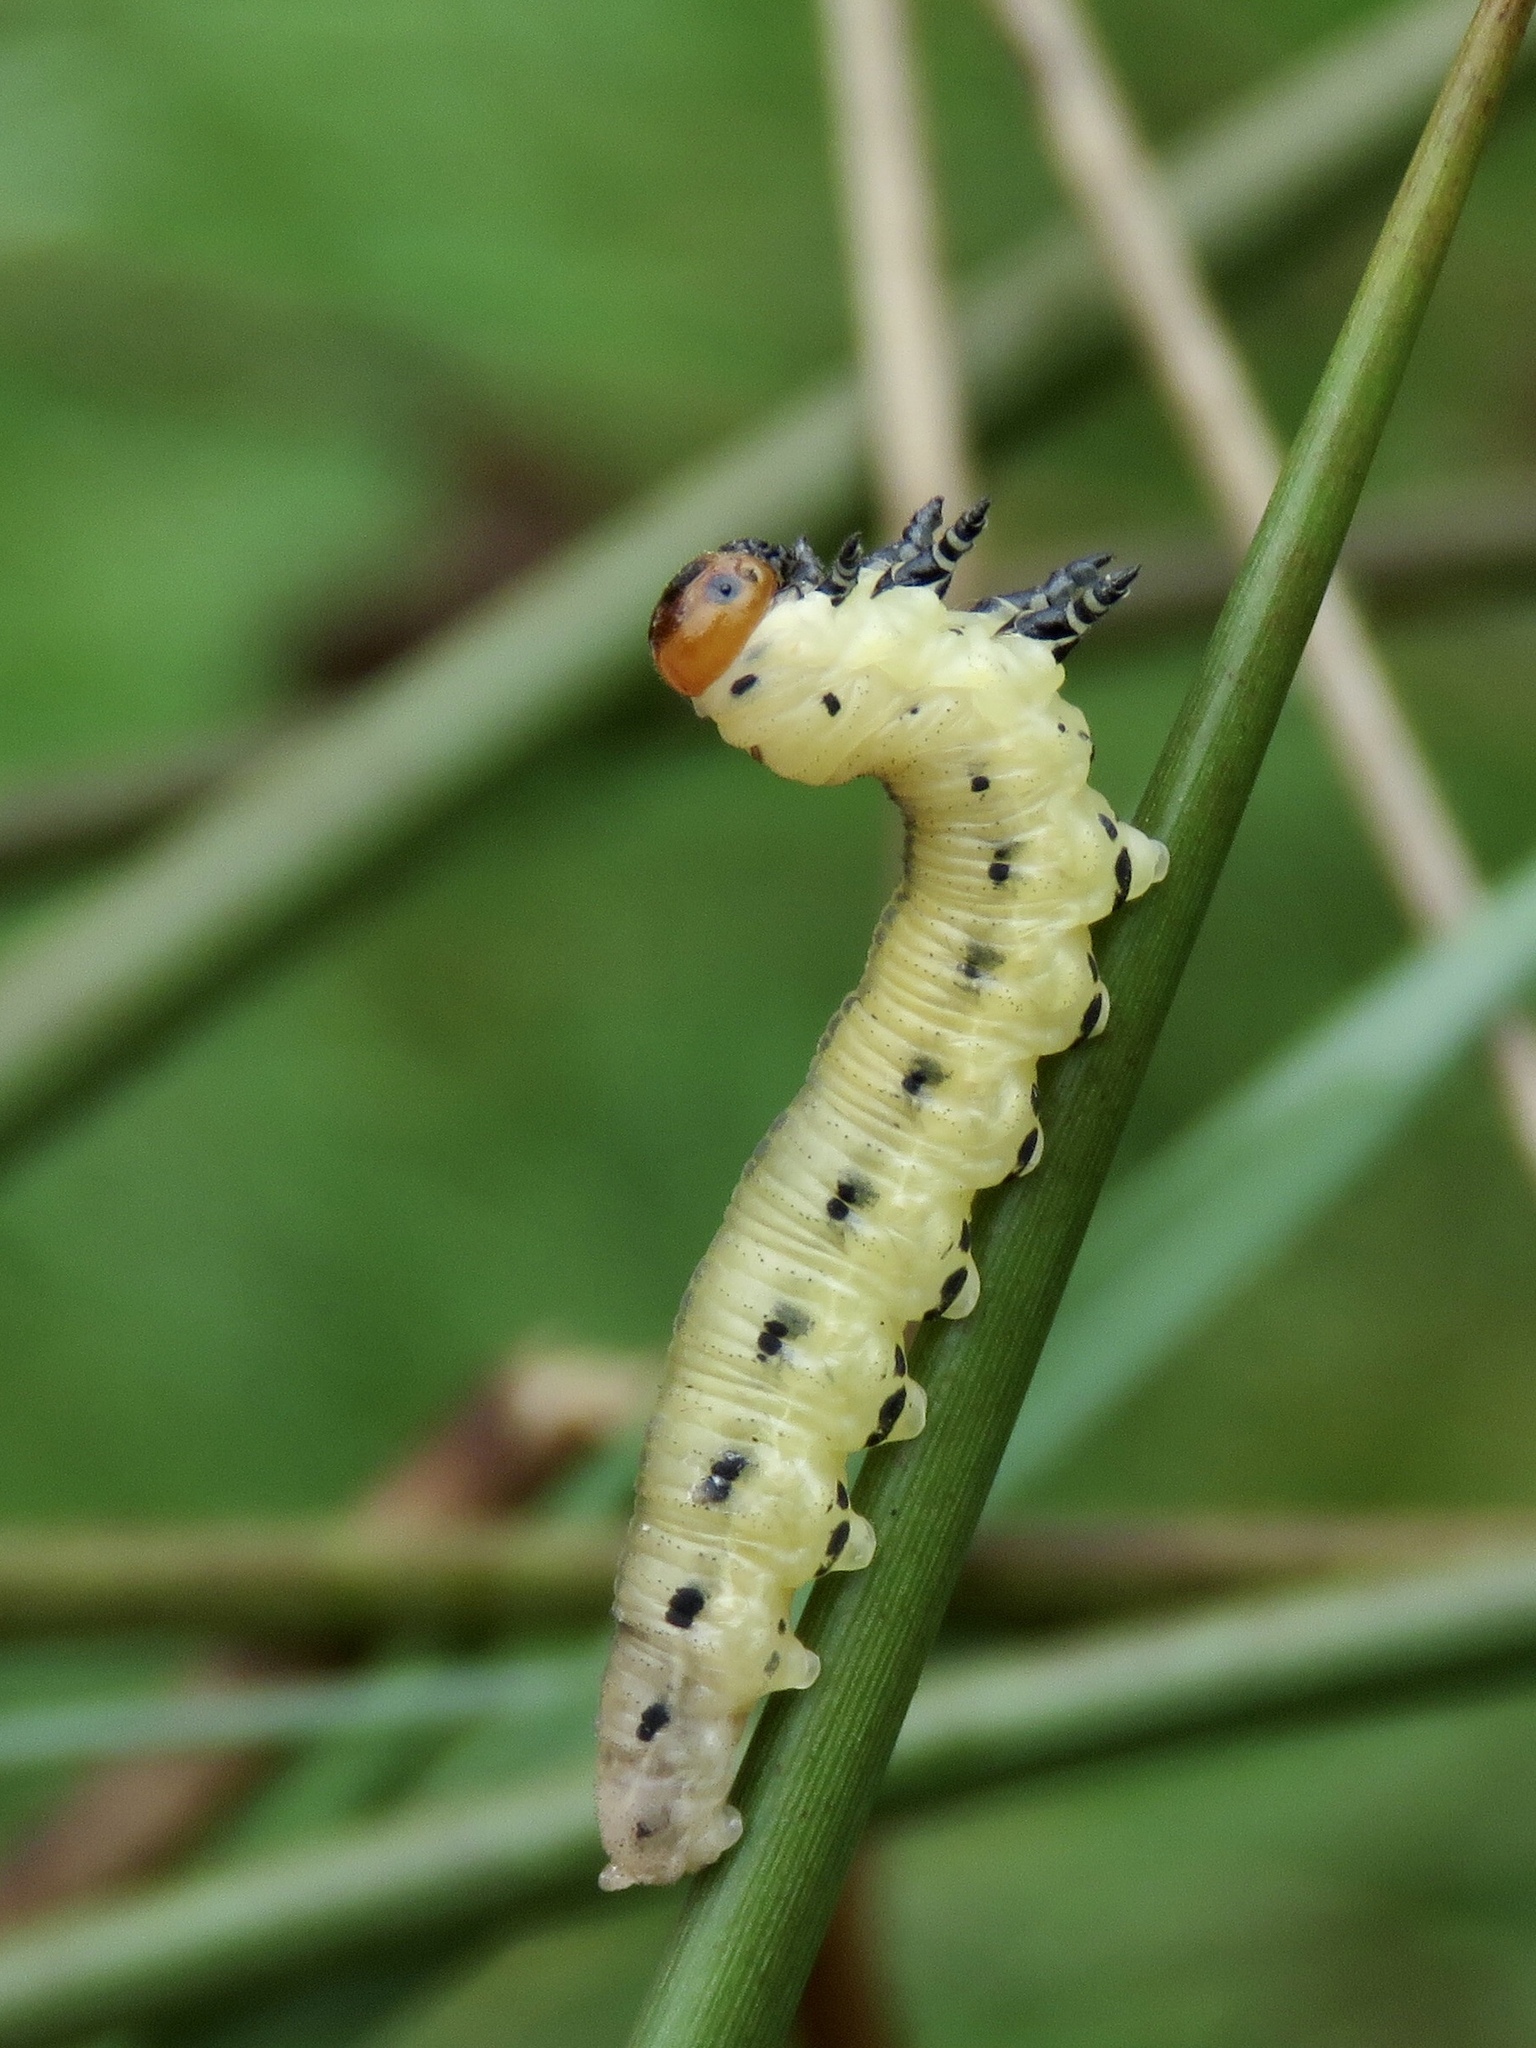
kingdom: Animalia
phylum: Arthropoda
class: Insecta
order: Hymenoptera
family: Diprionidae
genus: Diprion
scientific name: Diprion pini
